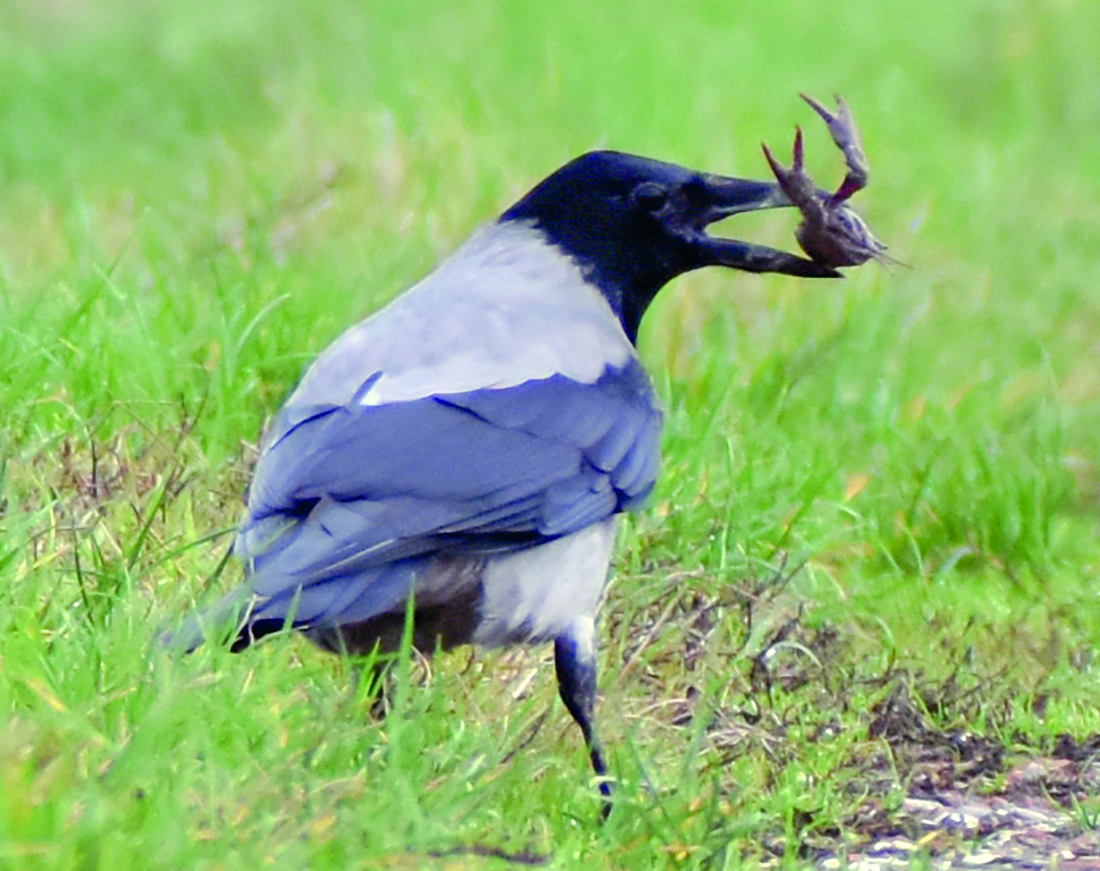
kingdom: Animalia
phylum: Chordata
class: Aves
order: Passeriformes
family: Corvidae
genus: Corvus
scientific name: Corvus cornix
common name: Hooded crow
